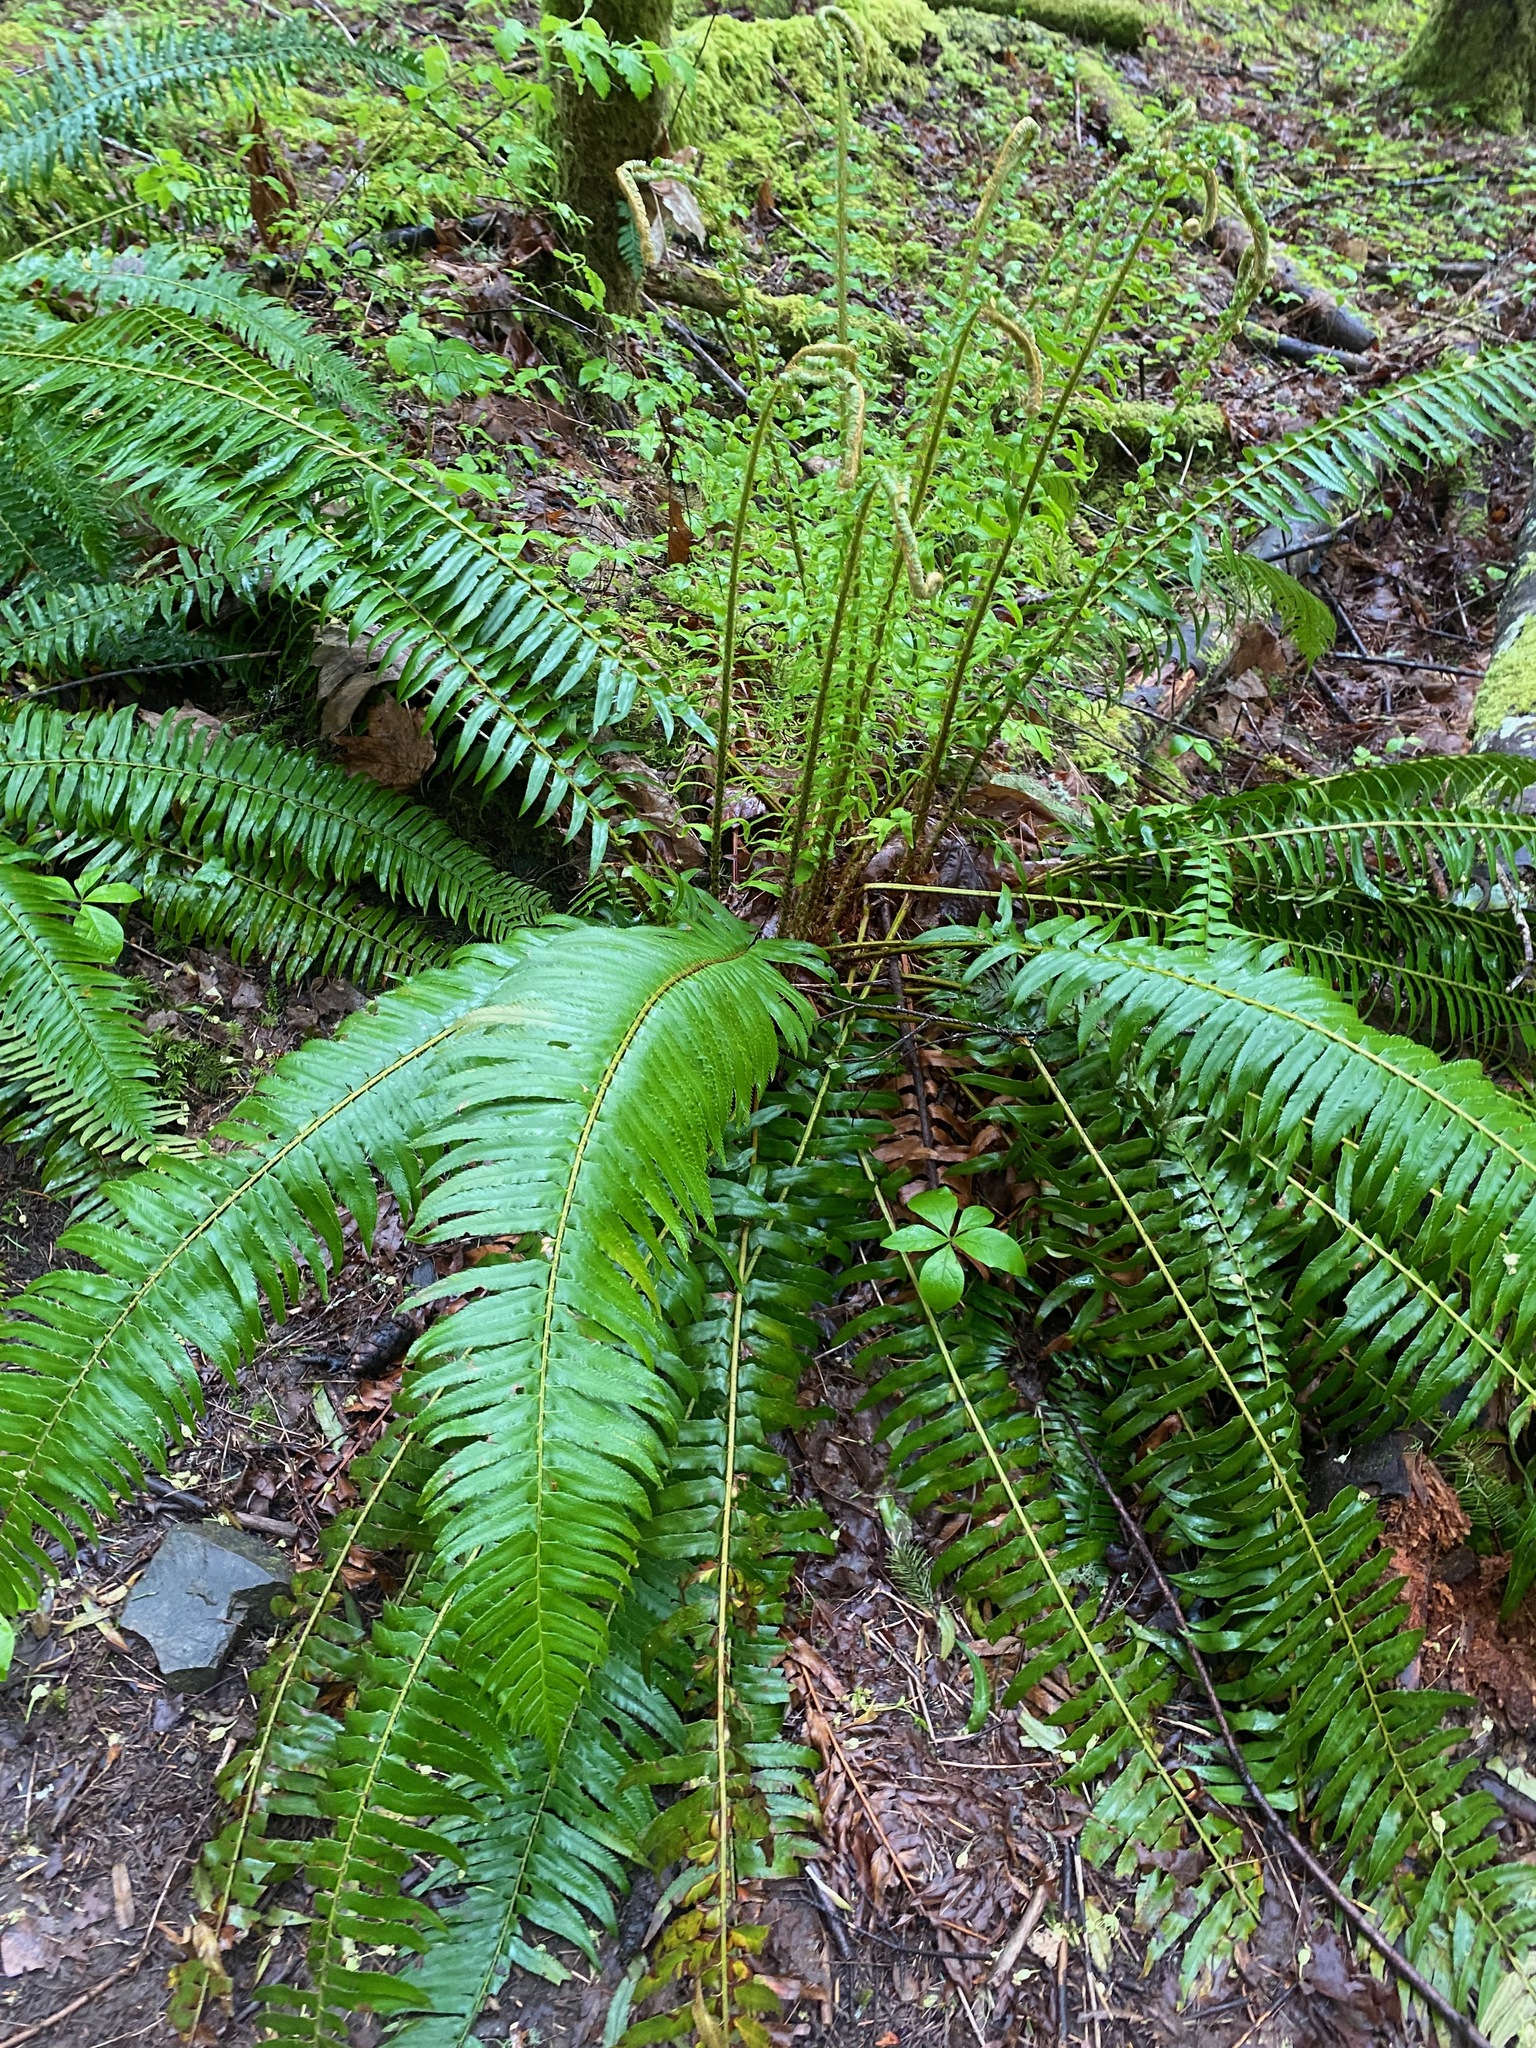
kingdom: Plantae
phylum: Tracheophyta
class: Polypodiopsida
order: Polypodiales
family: Dryopteridaceae
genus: Polystichum
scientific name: Polystichum munitum
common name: Western sword-fern
